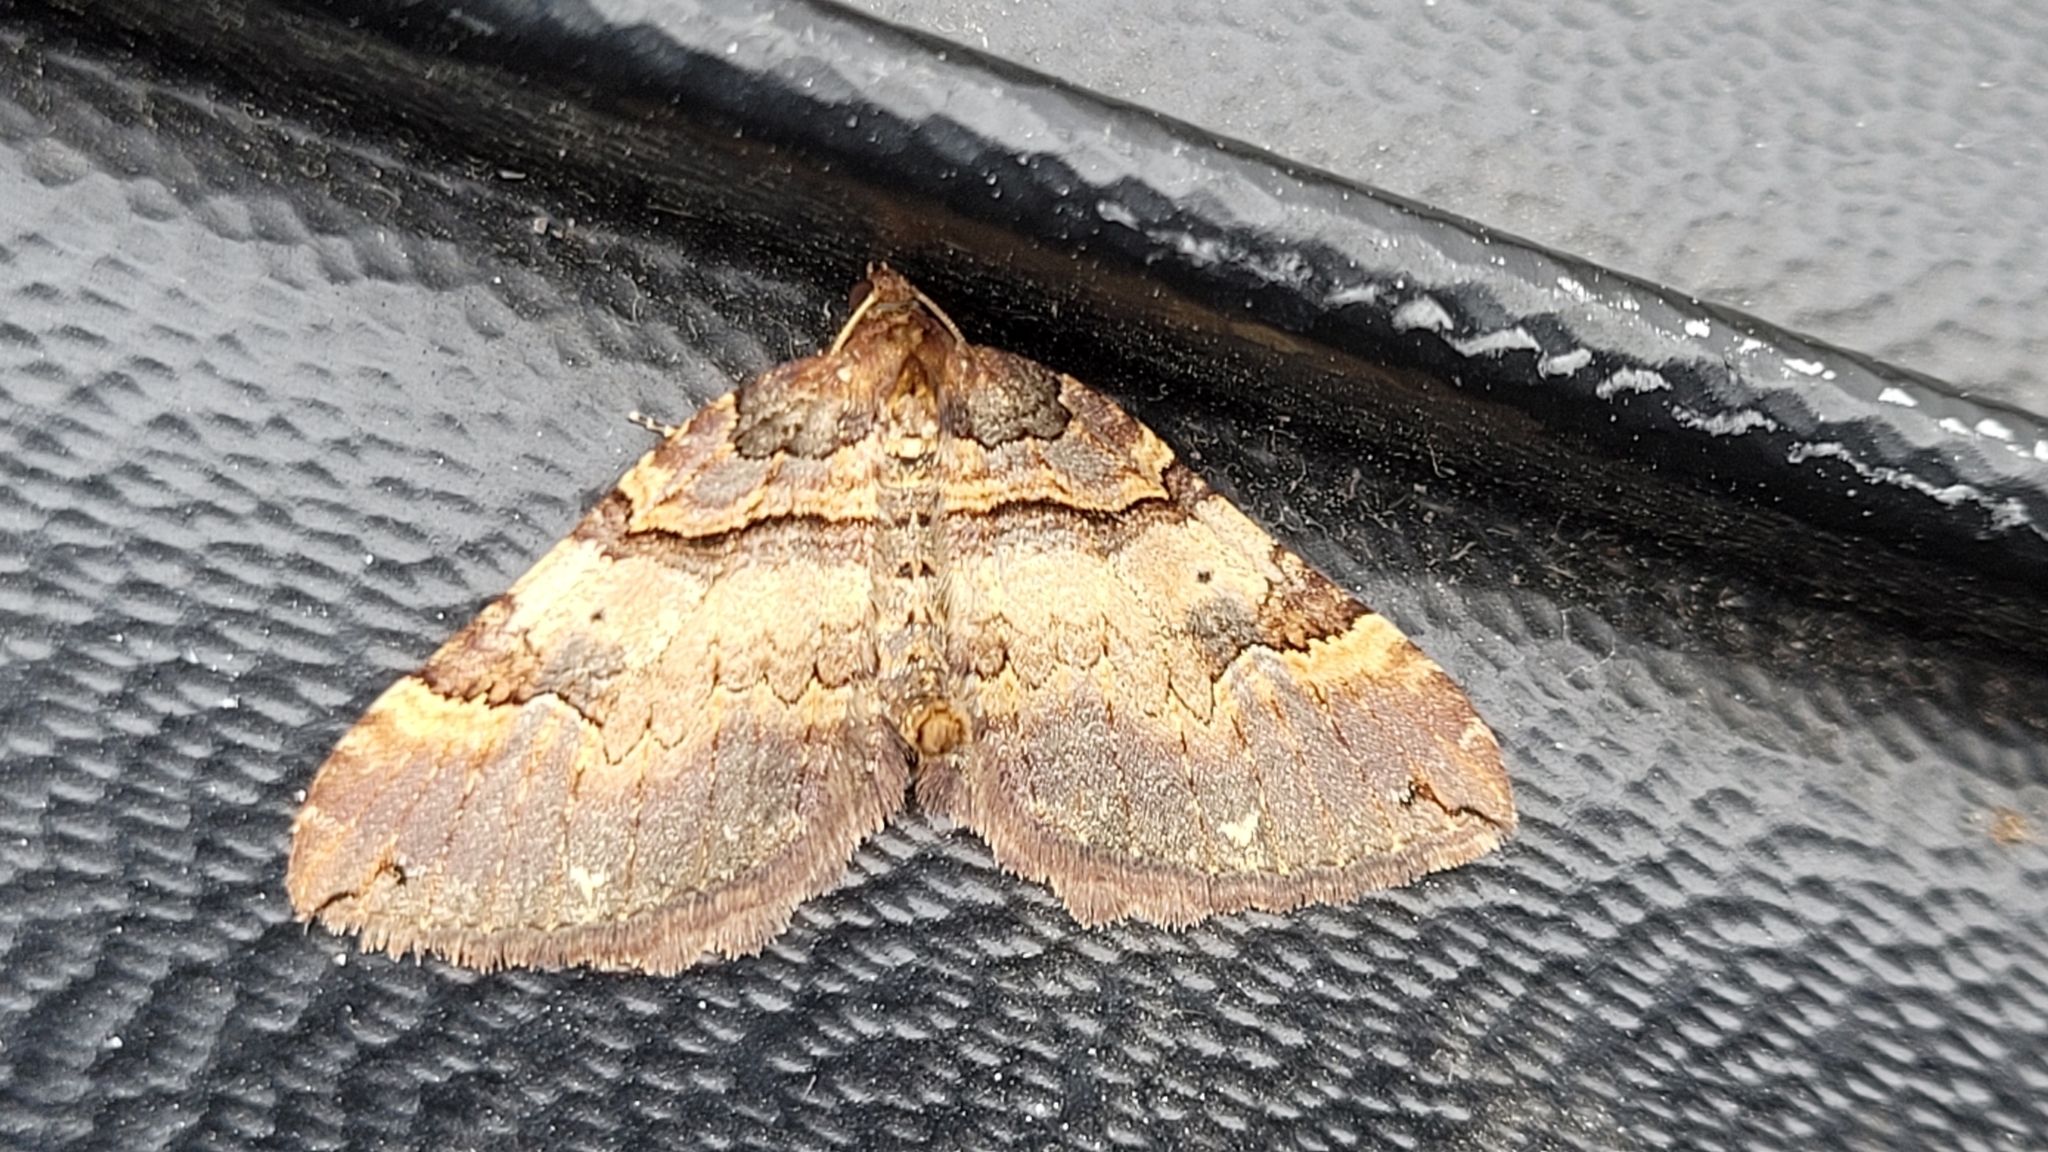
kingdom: Animalia
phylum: Arthropoda
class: Insecta
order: Lepidoptera
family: Geometridae
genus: Anticlea
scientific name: Anticlea badiata
